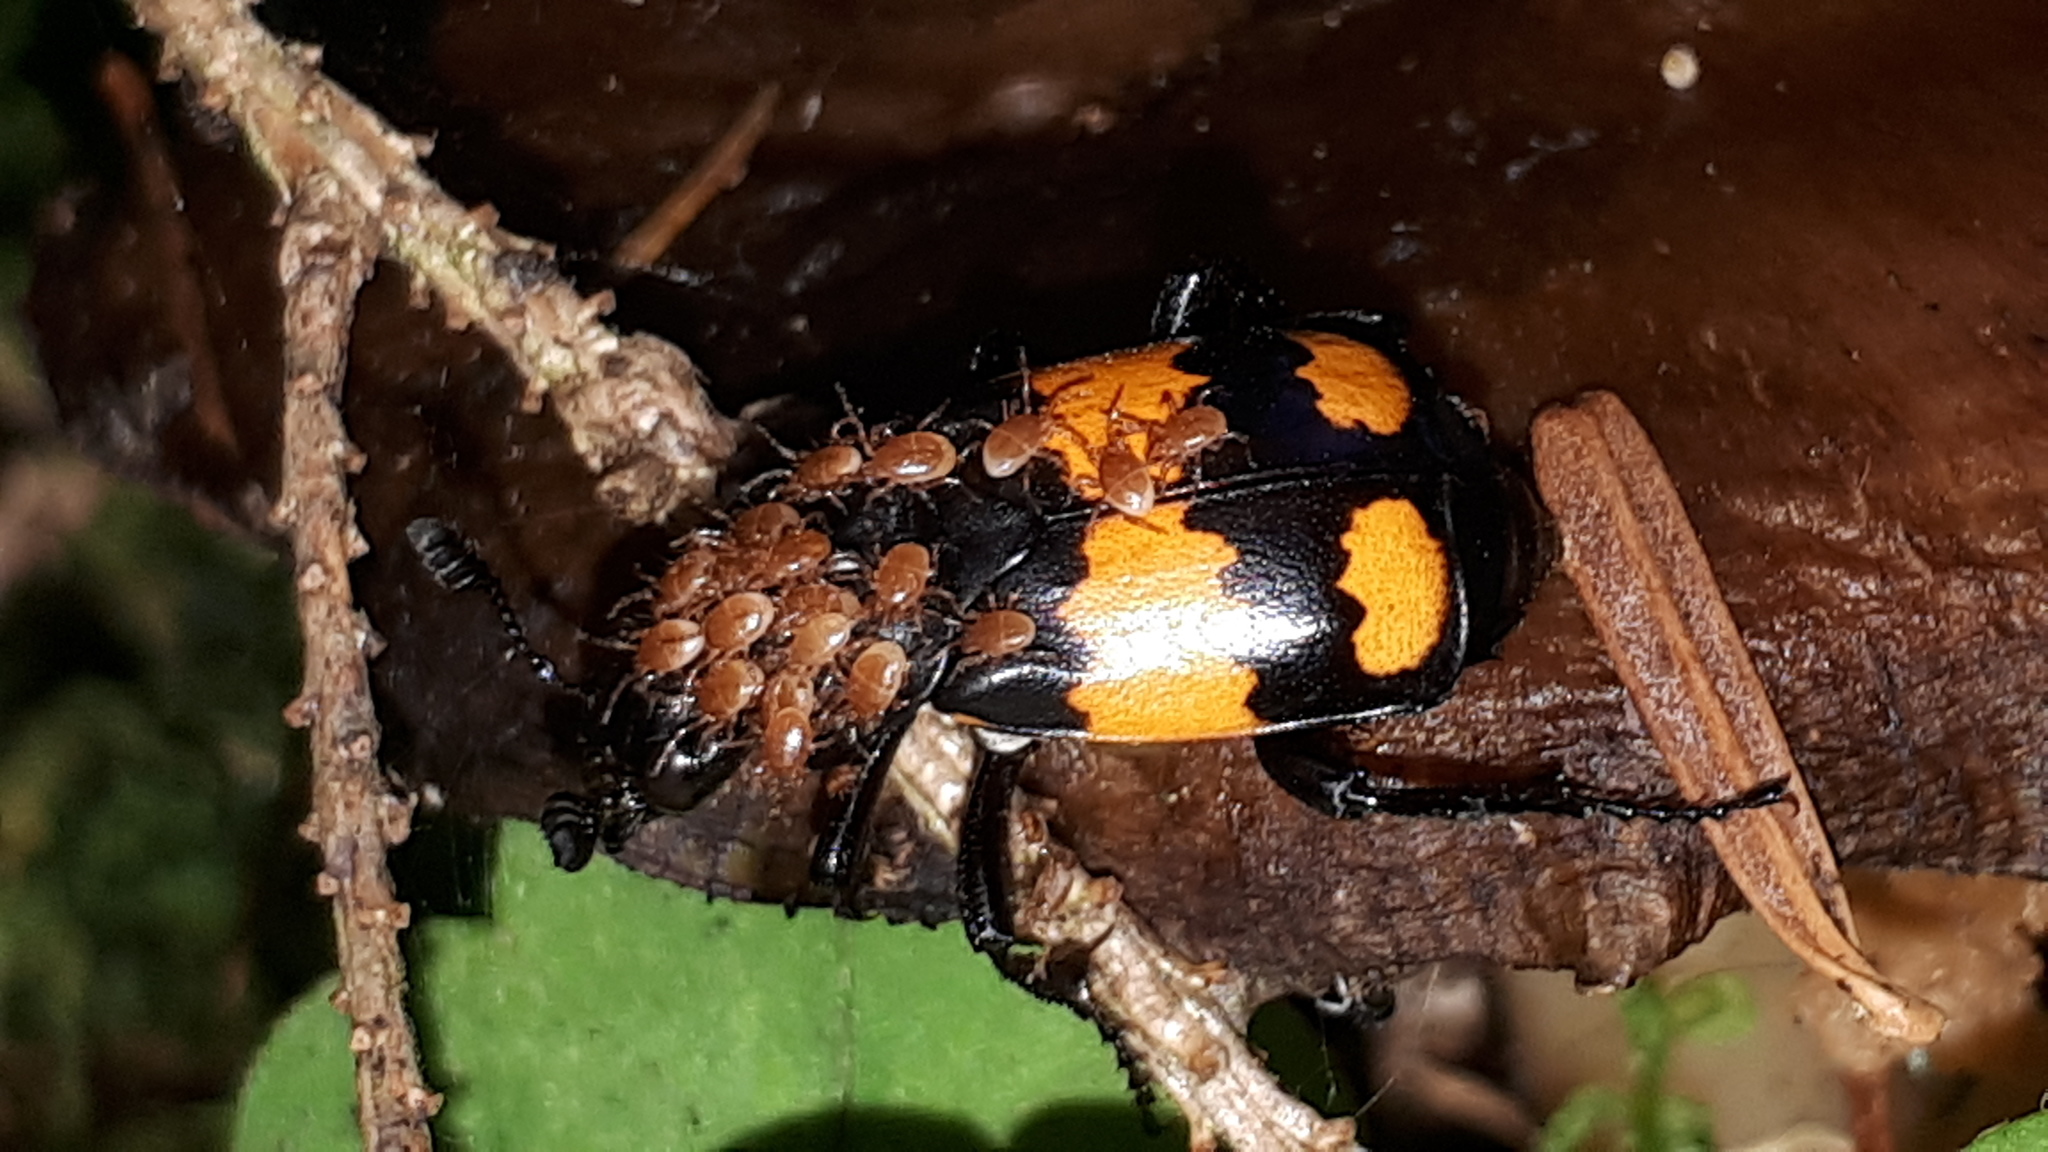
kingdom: Animalia
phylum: Arthropoda
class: Insecta
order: Coleoptera
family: Staphylinidae
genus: Nicrophorus
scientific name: Nicrophorus vespilloides
